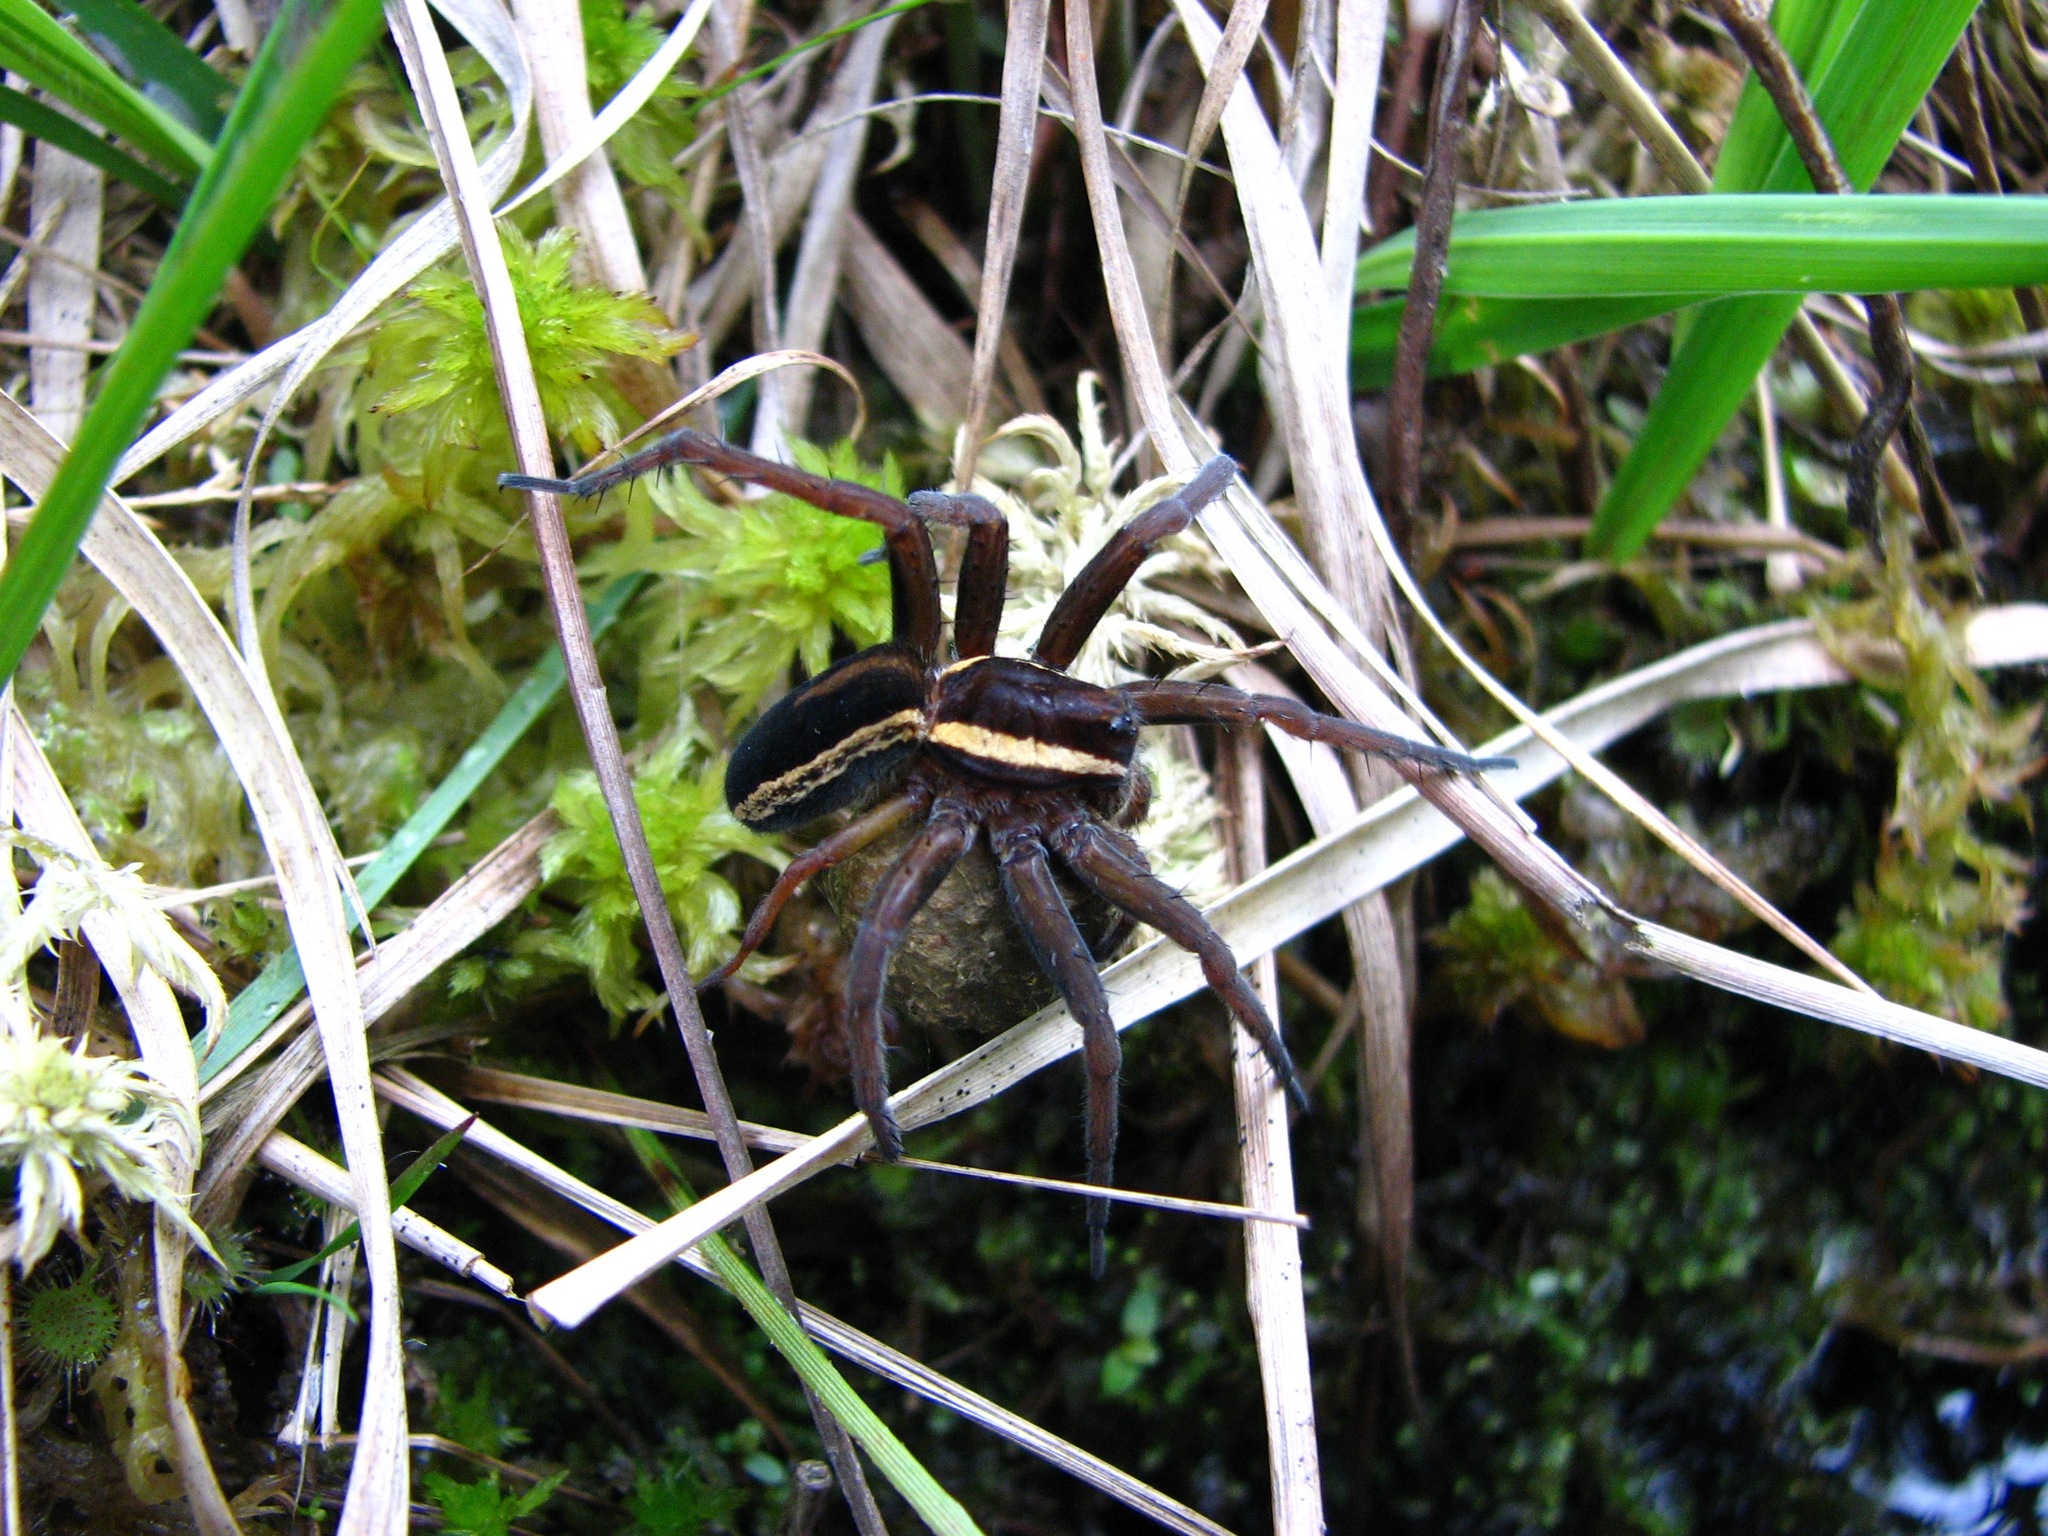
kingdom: Animalia
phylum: Arthropoda
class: Arachnida
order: Araneae
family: Pisauridae
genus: Dolomedes
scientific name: Dolomedes fimbriatus
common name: Raft spider
